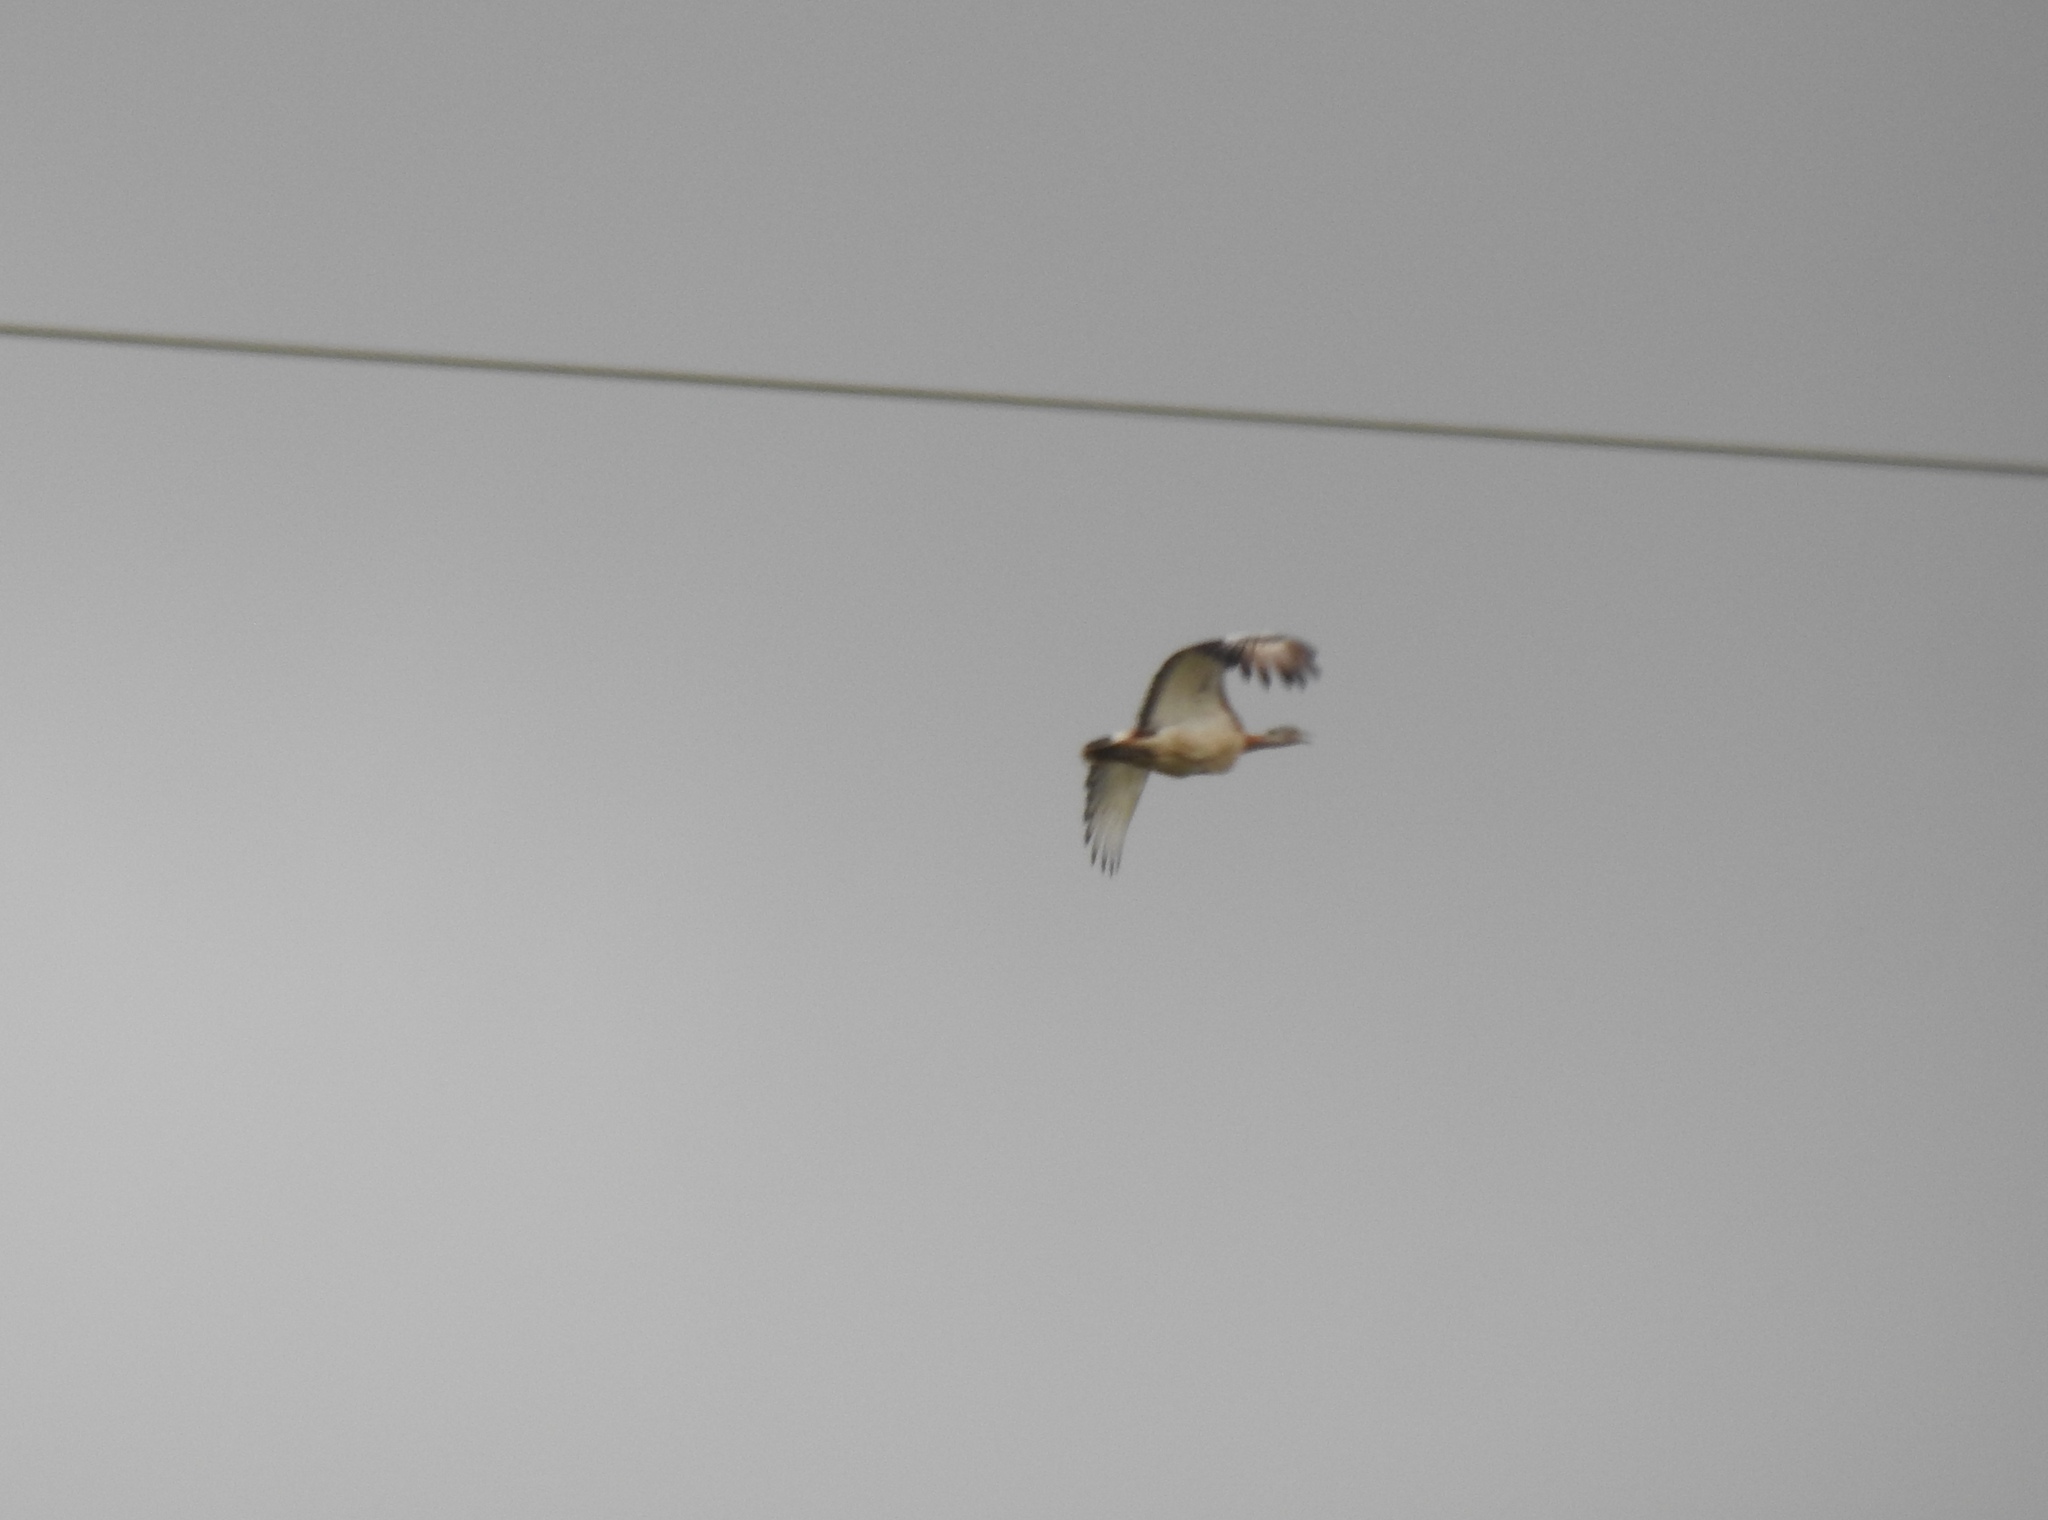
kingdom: Animalia
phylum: Chordata
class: Aves
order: Otidiformes
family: Otididae
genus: Otis
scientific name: Otis tarda
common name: Great bustard
